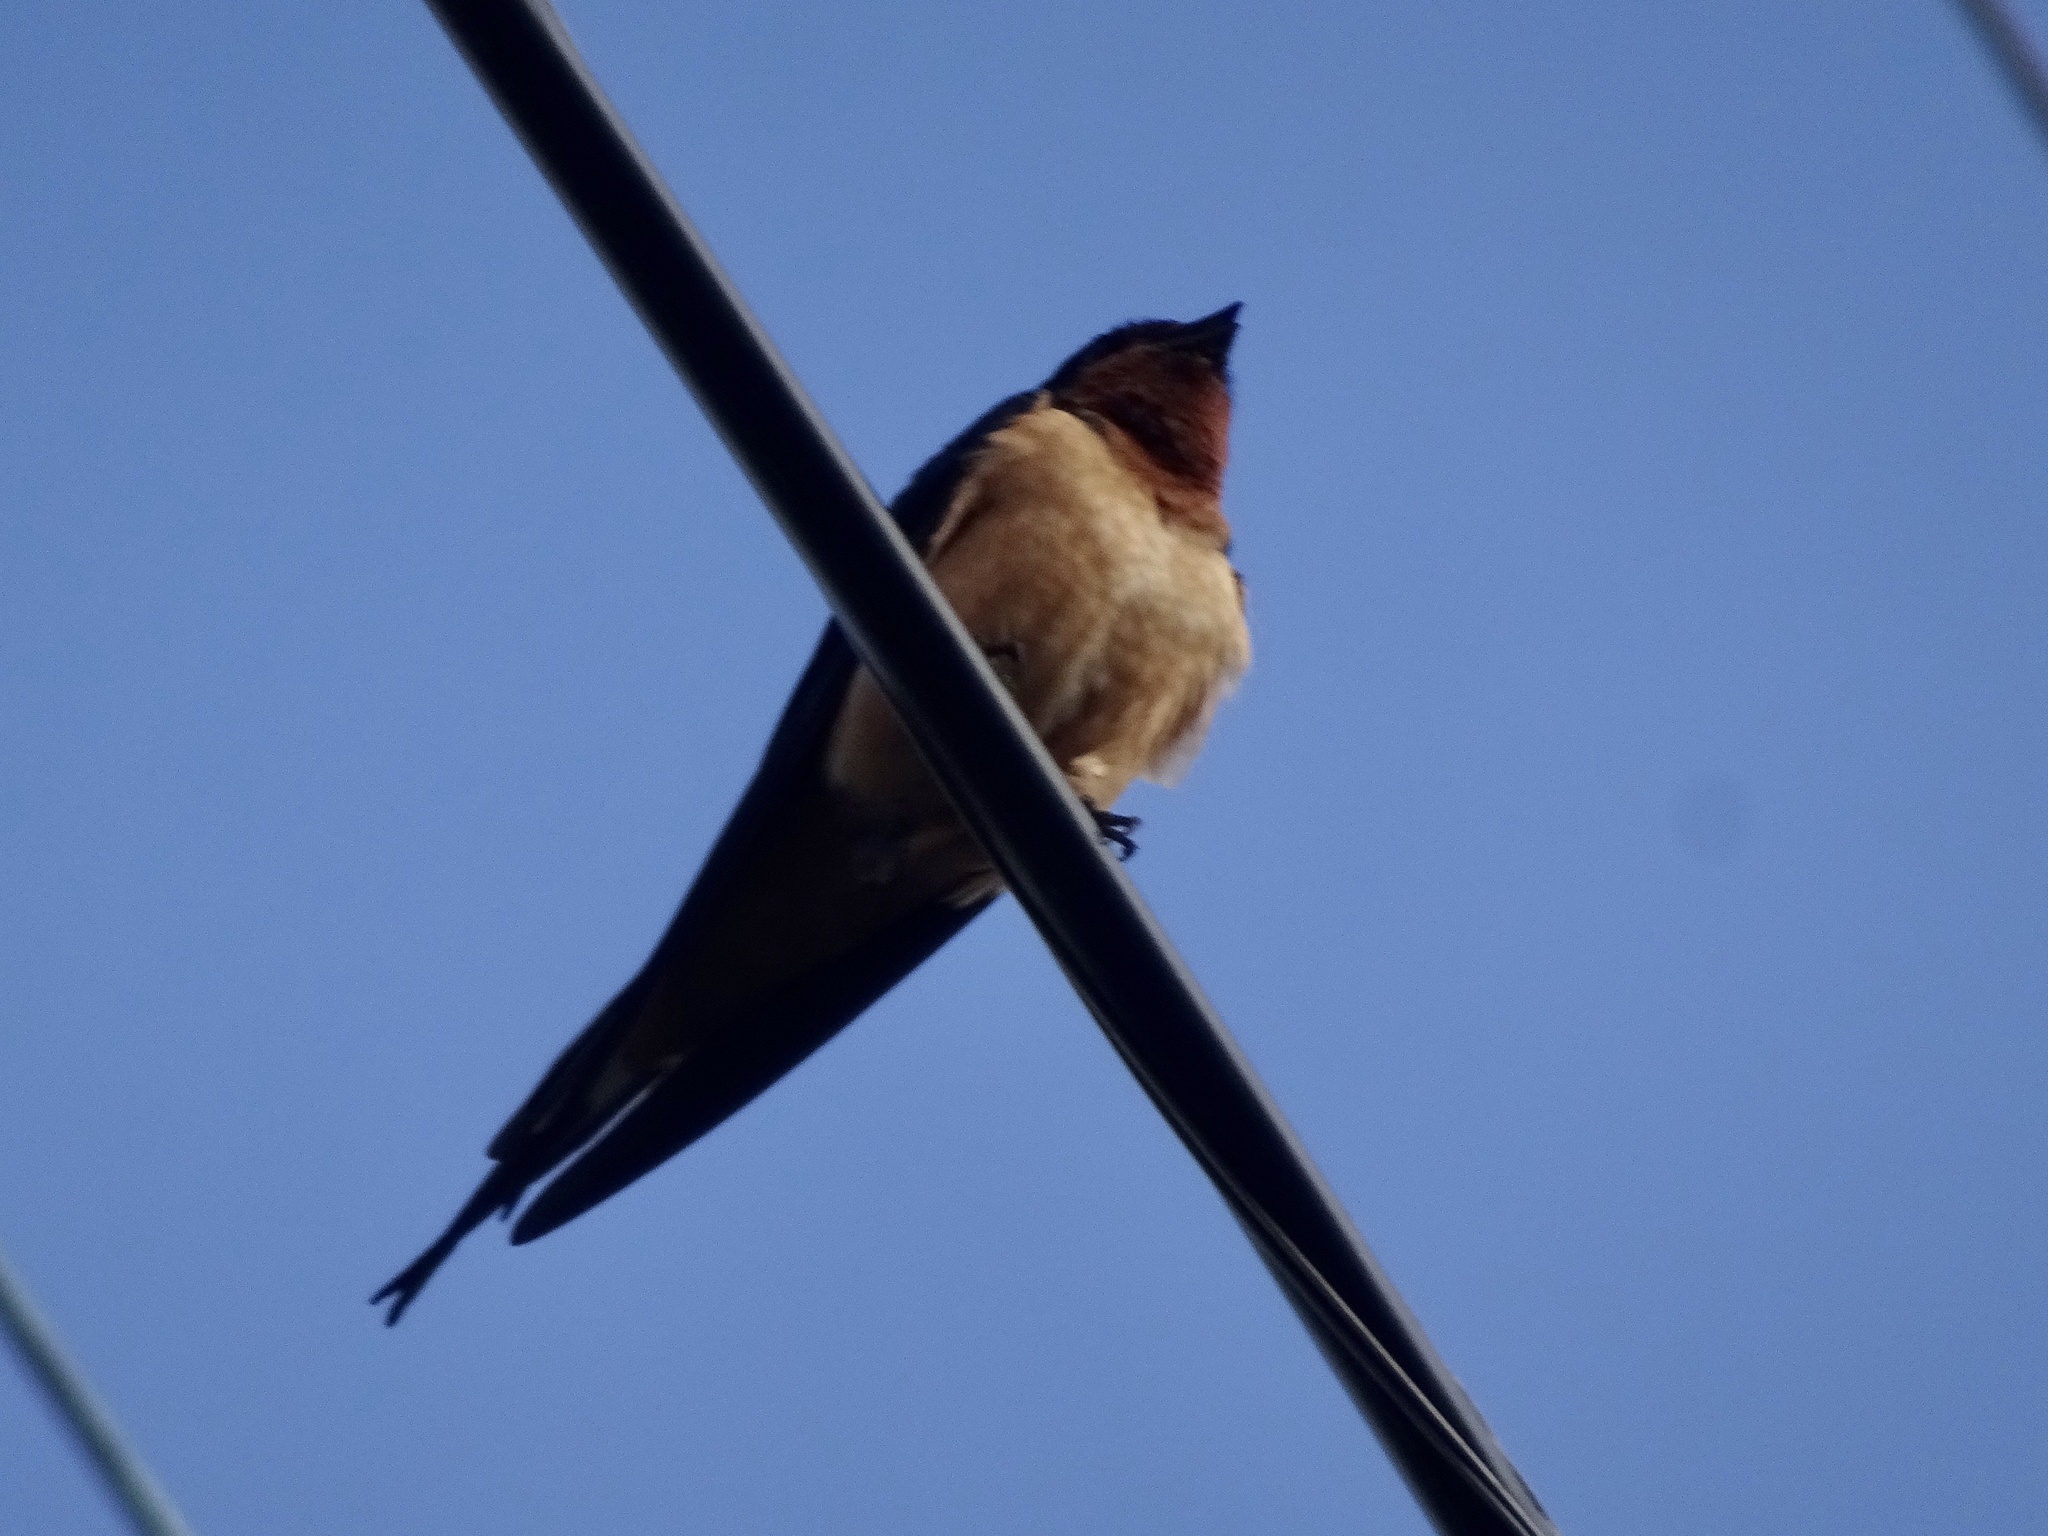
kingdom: Animalia
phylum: Chordata
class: Aves
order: Passeriformes
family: Hirundinidae
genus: Hirundo
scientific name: Hirundo rustica
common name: Barn swallow
